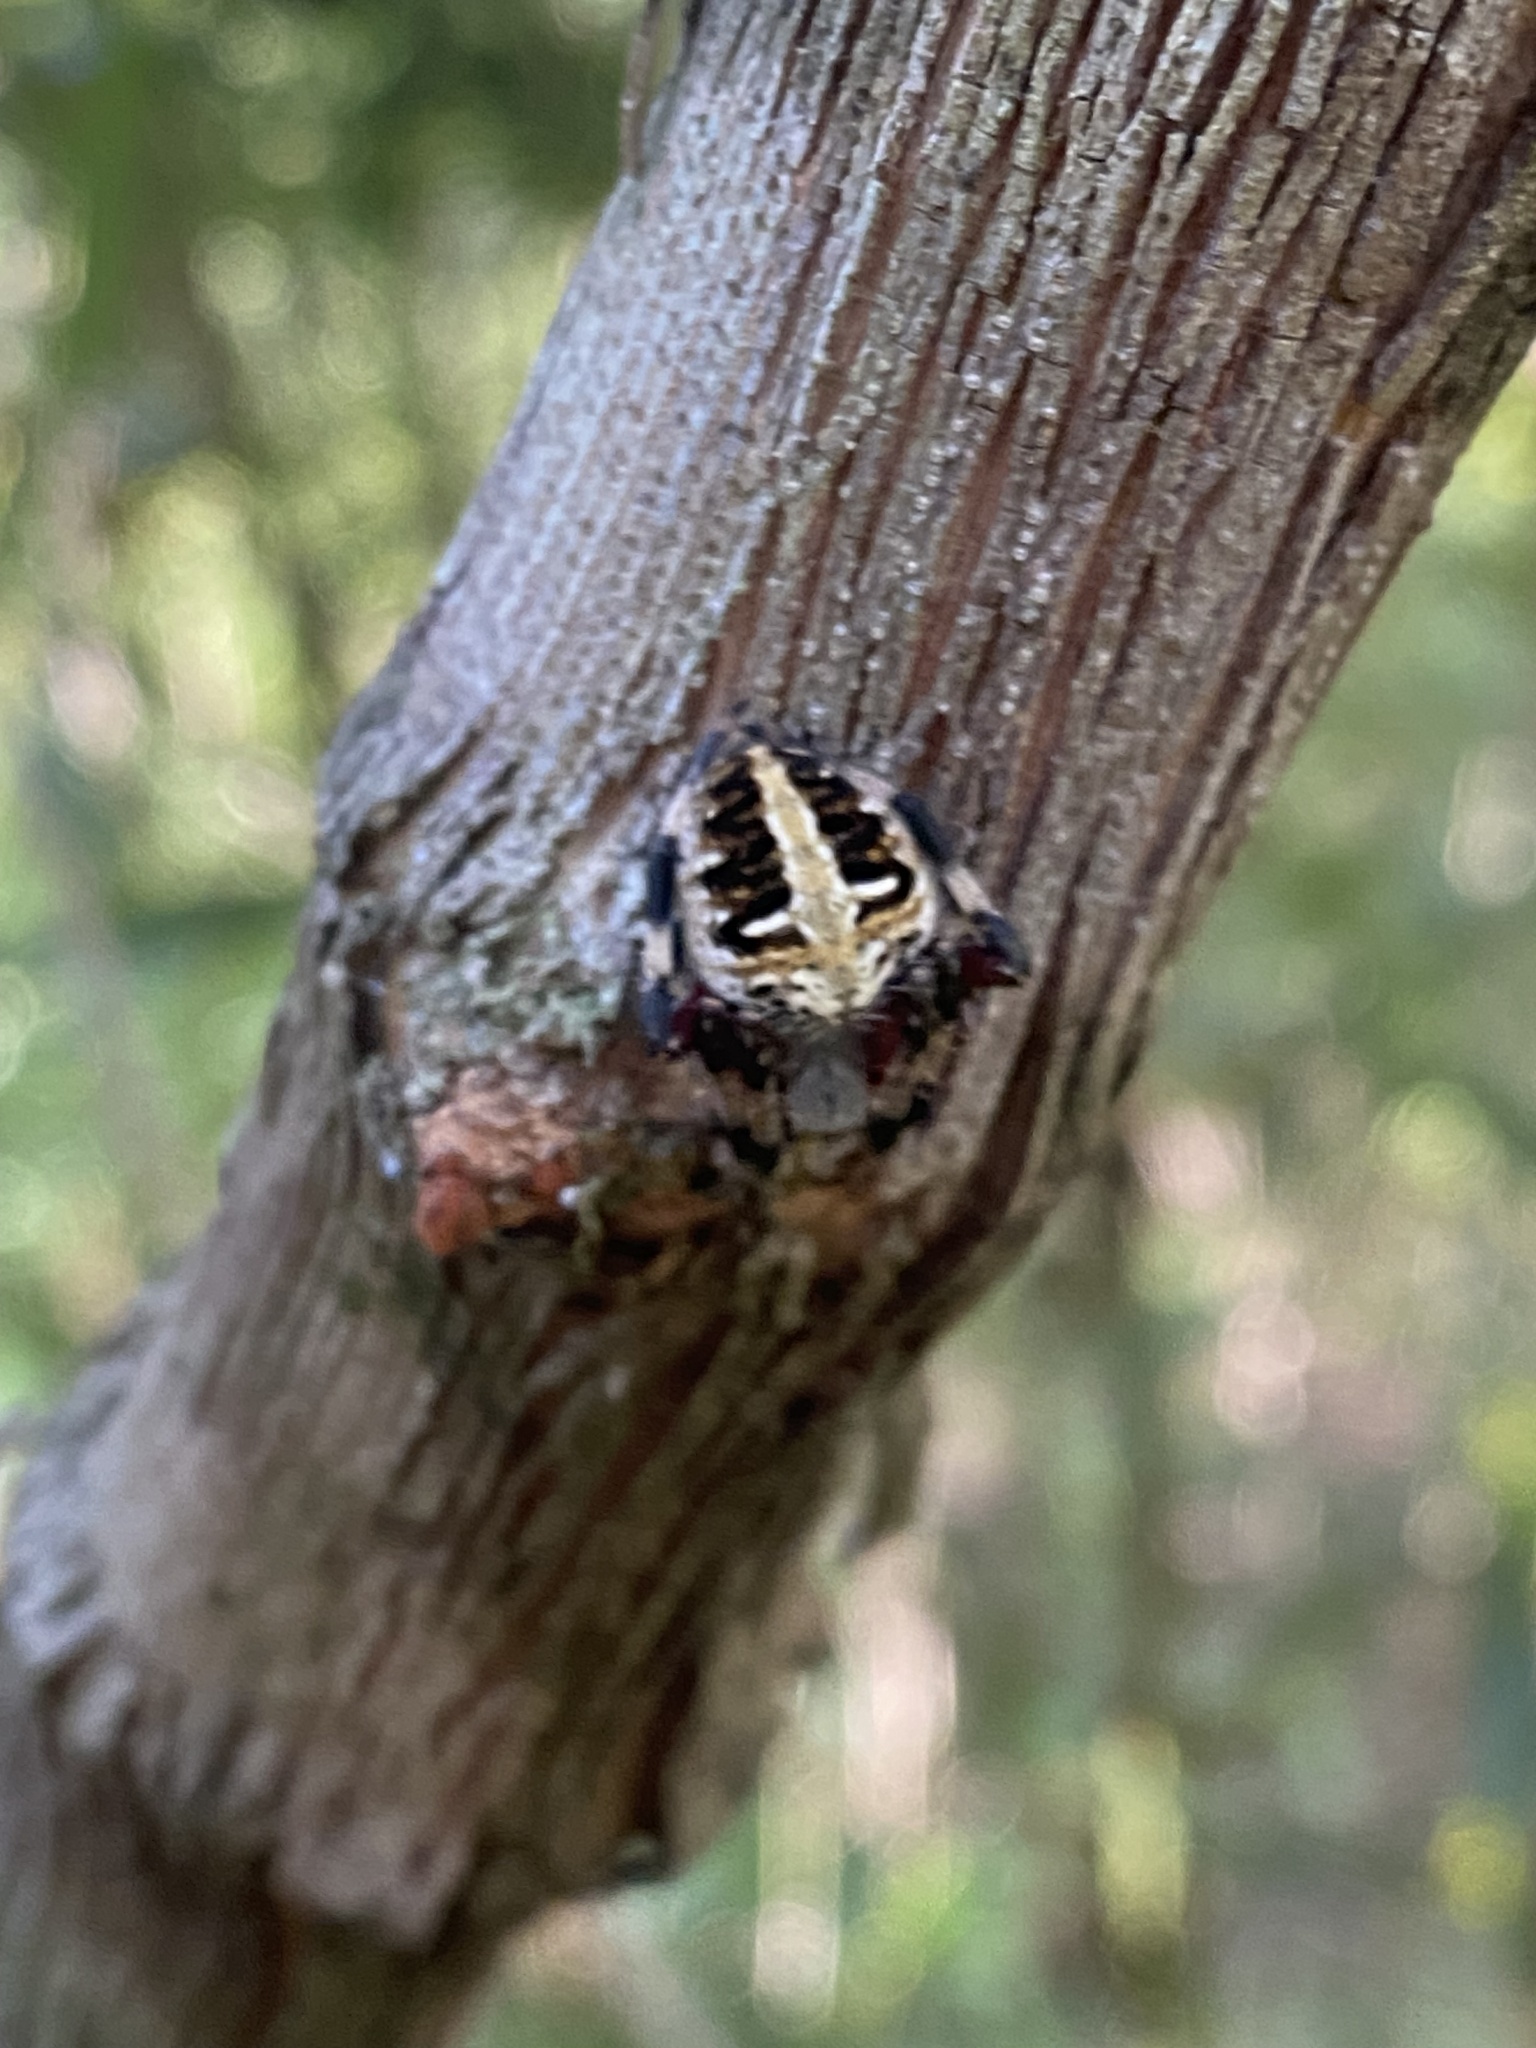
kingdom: Animalia
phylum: Arthropoda
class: Arachnida
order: Araneae
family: Araneidae
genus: Neoscona
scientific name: Neoscona domiciliorum
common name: Red-femured spotted orbweaver
